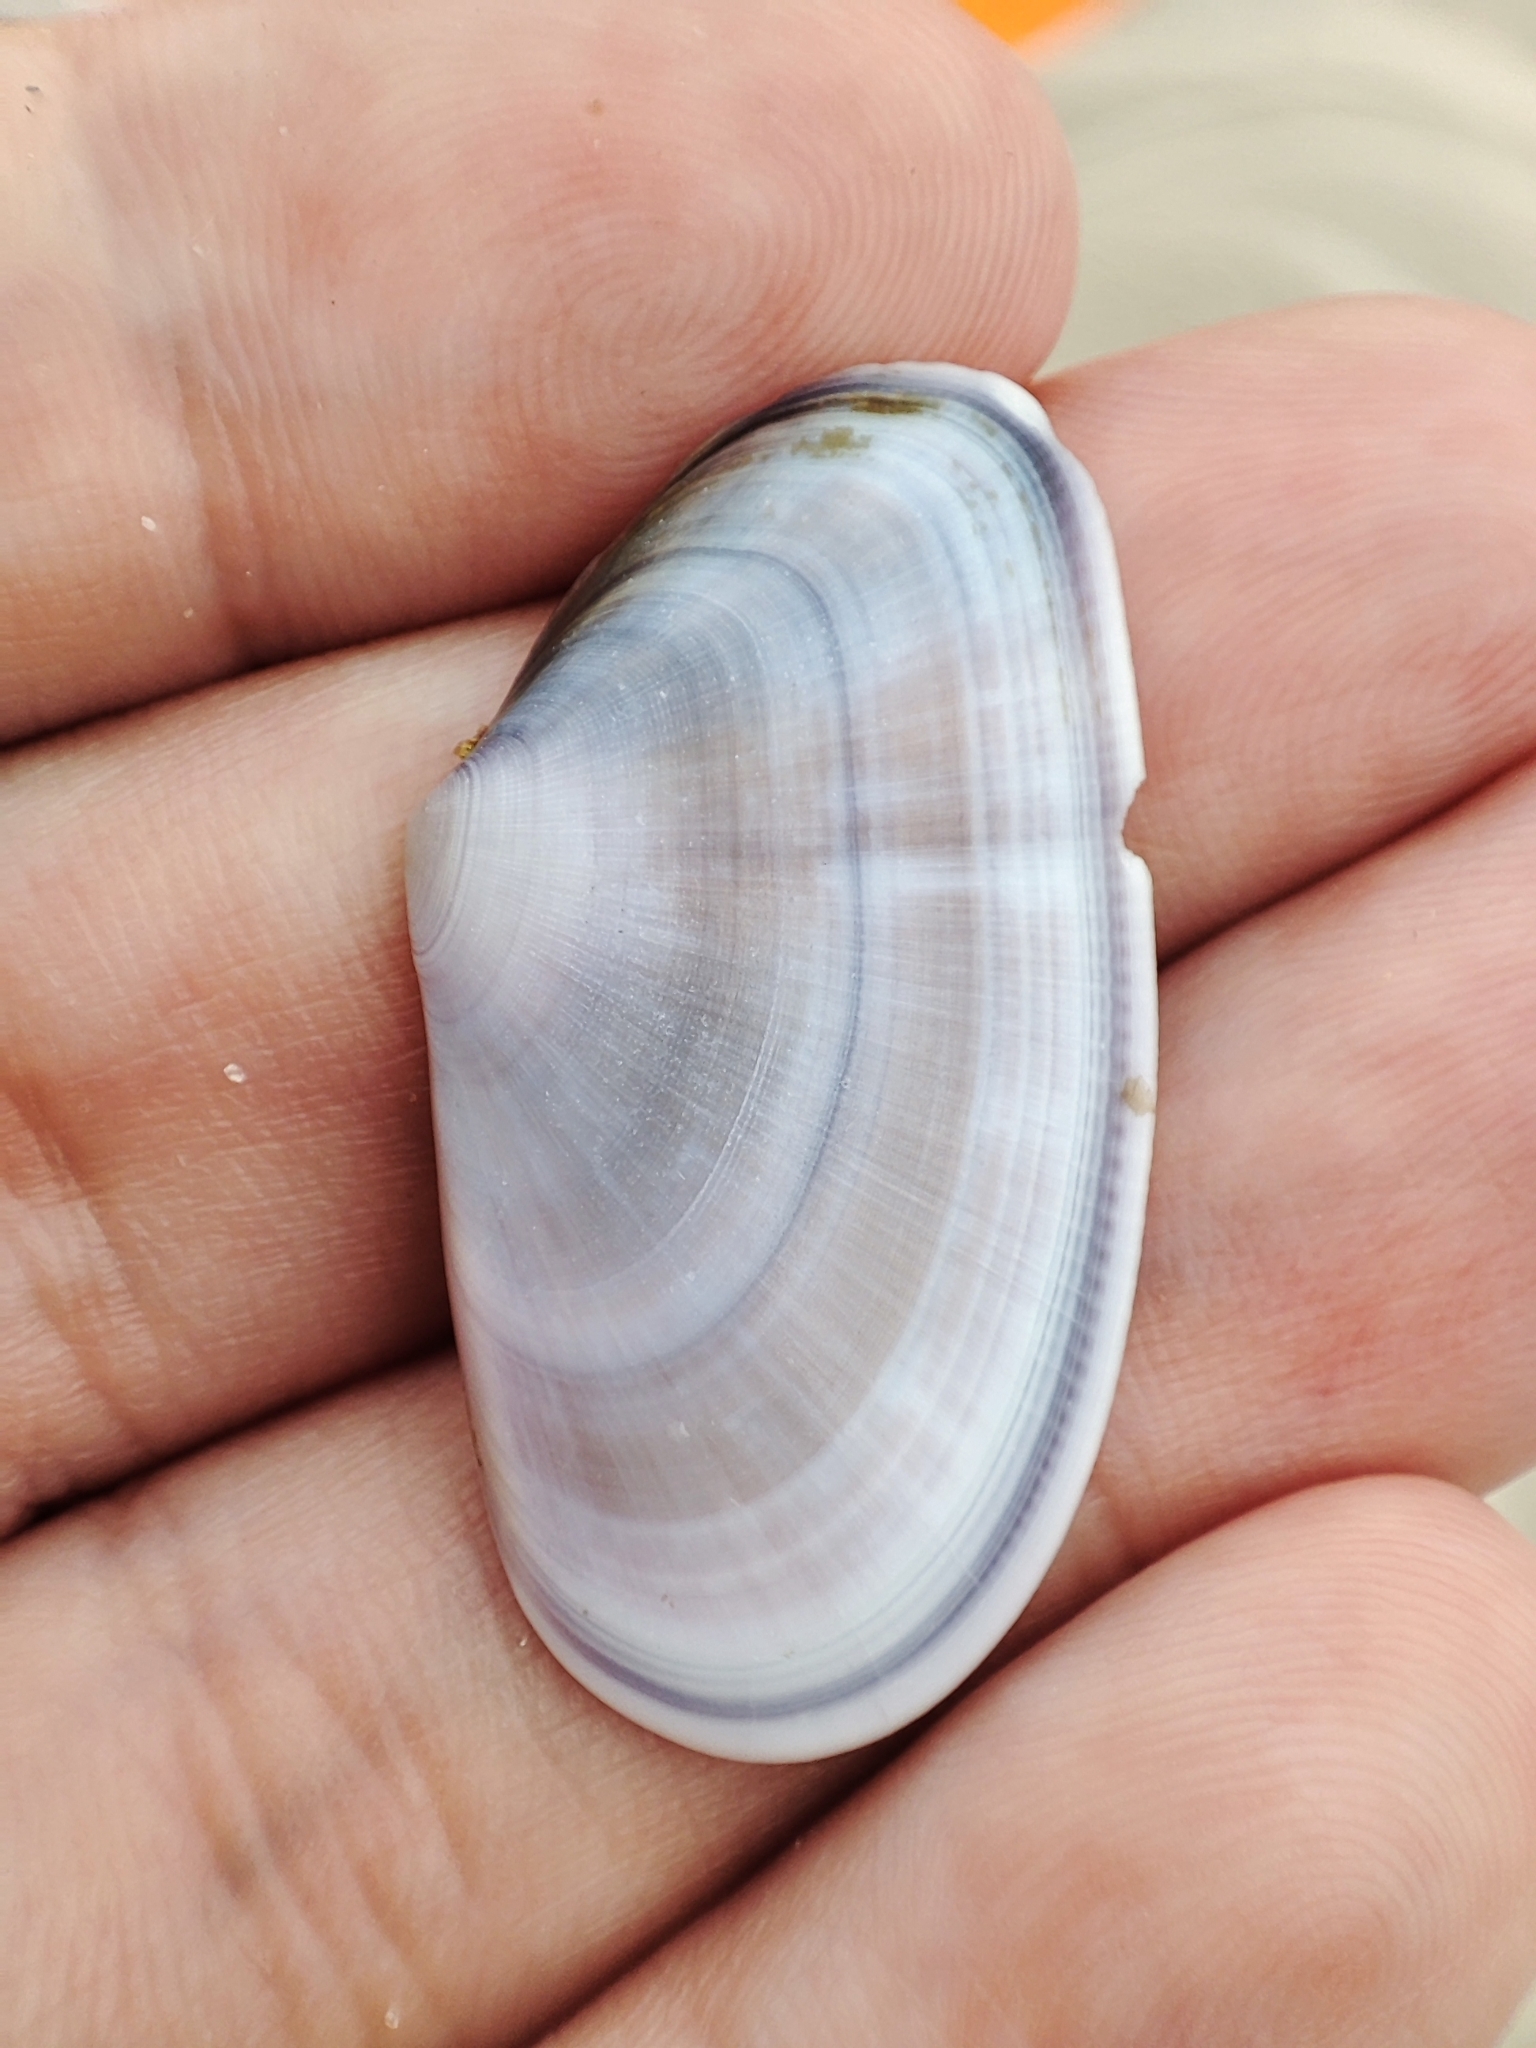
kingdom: Animalia
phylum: Mollusca
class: Bivalvia
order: Cardiida
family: Donacidae
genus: Donax
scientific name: Donax trunculus
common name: Truncate donax
